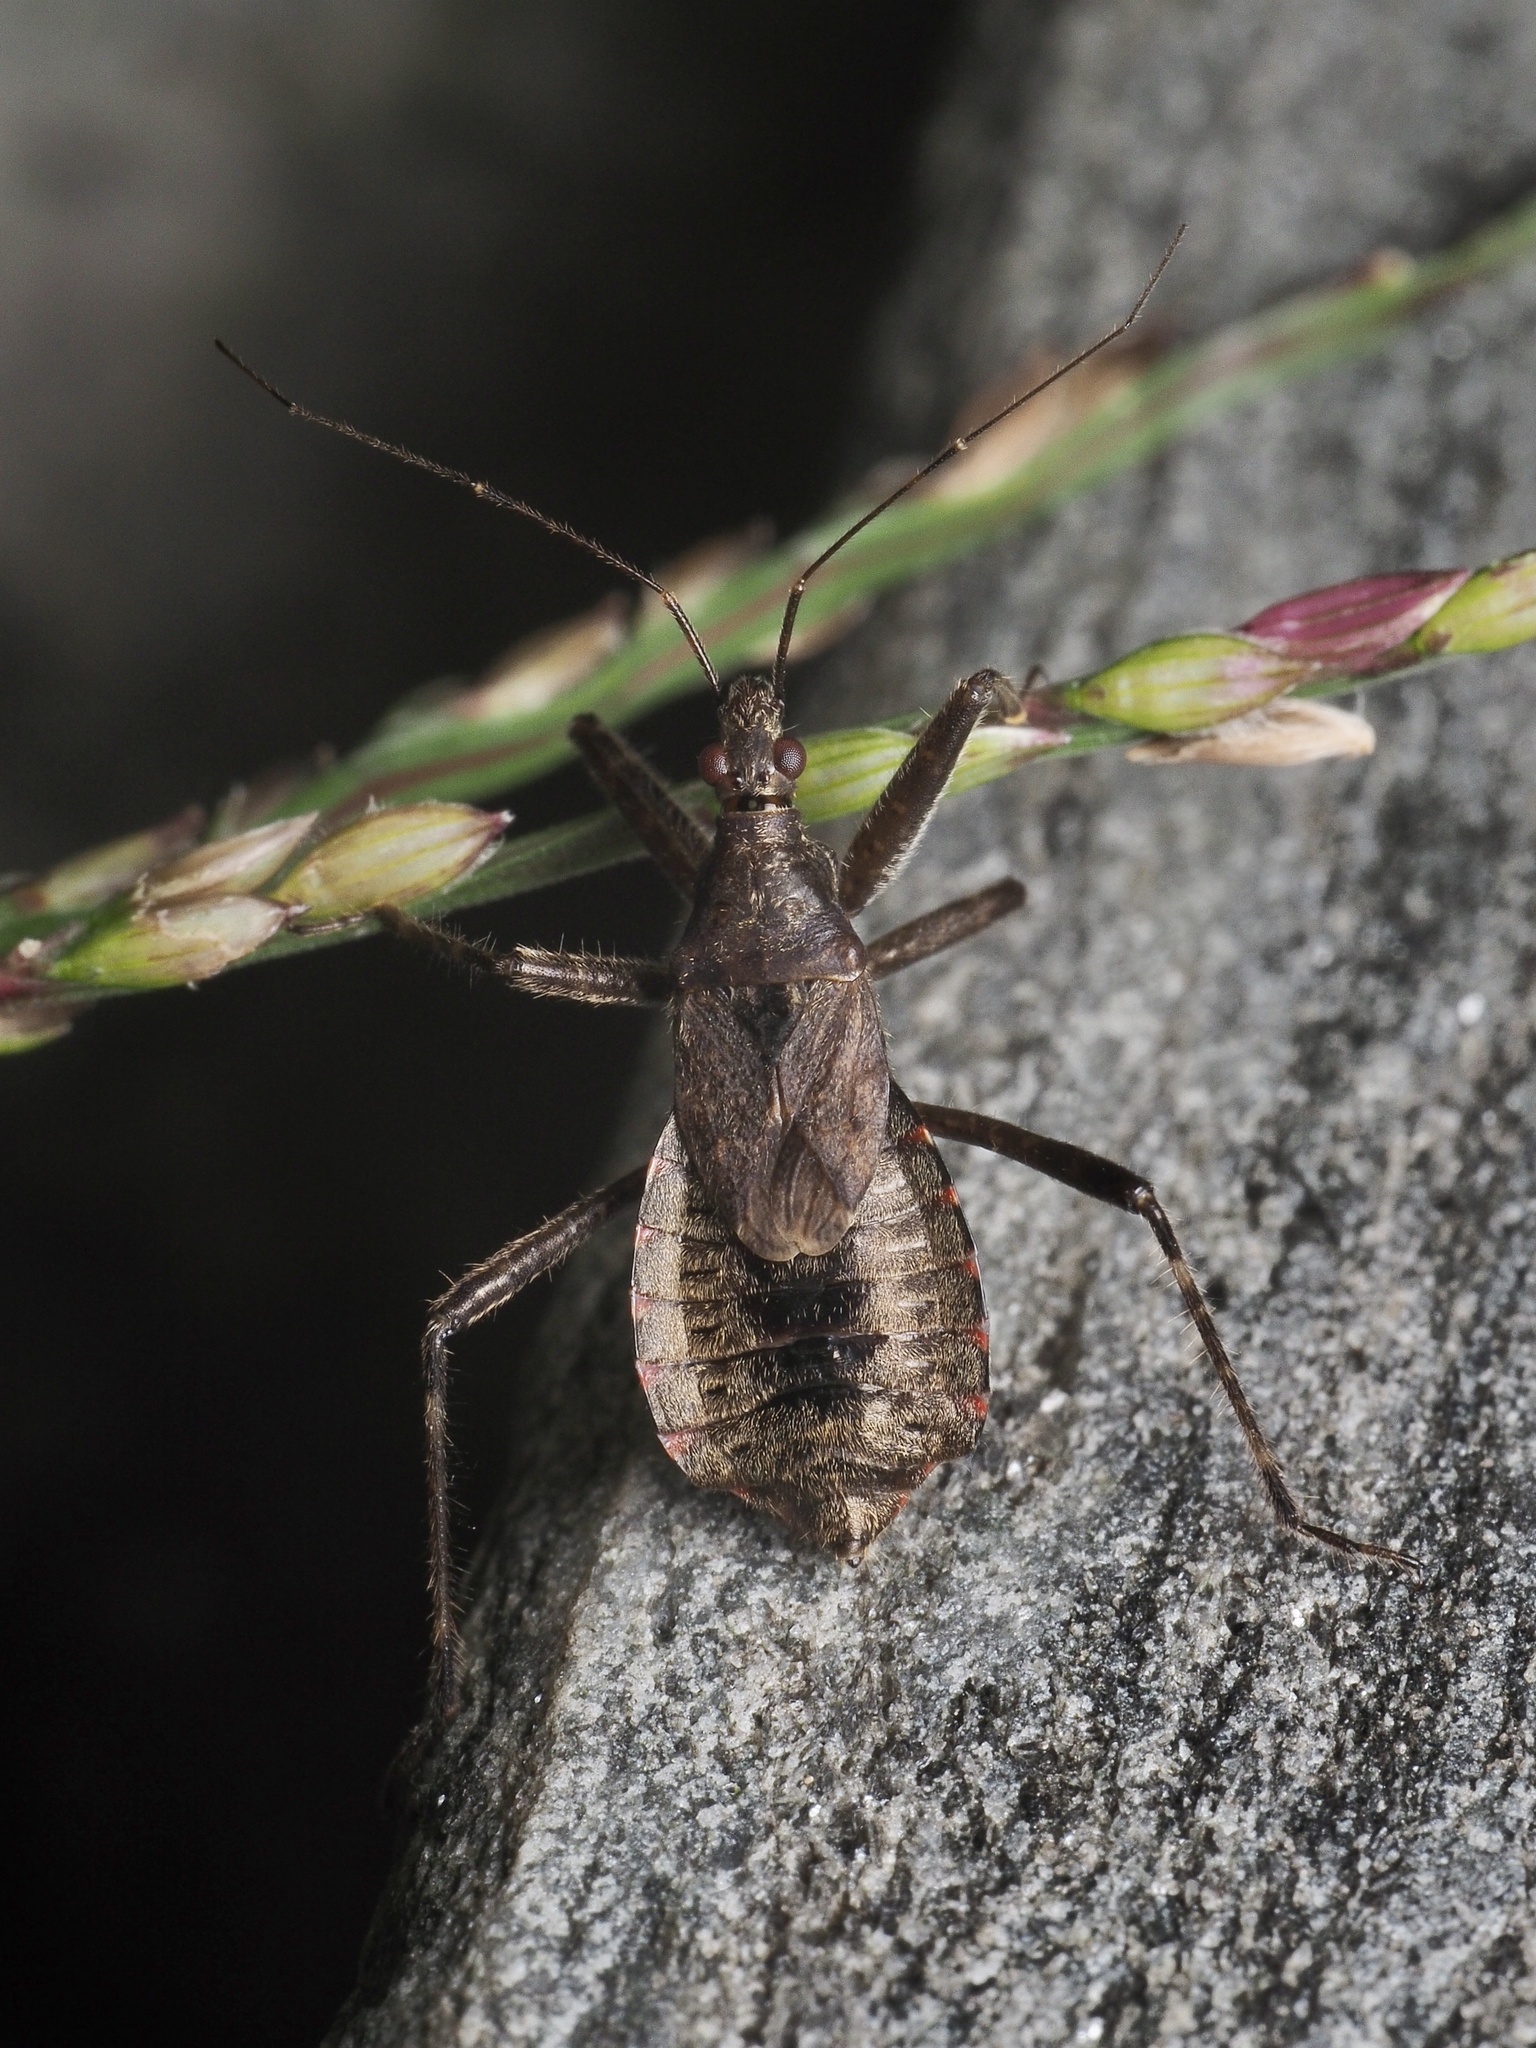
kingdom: Animalia
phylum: Arthropoda
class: Insecta
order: Hemiptera
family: Nabidae
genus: Himacerus
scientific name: Himacerus apterus
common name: Tree damsel bug
